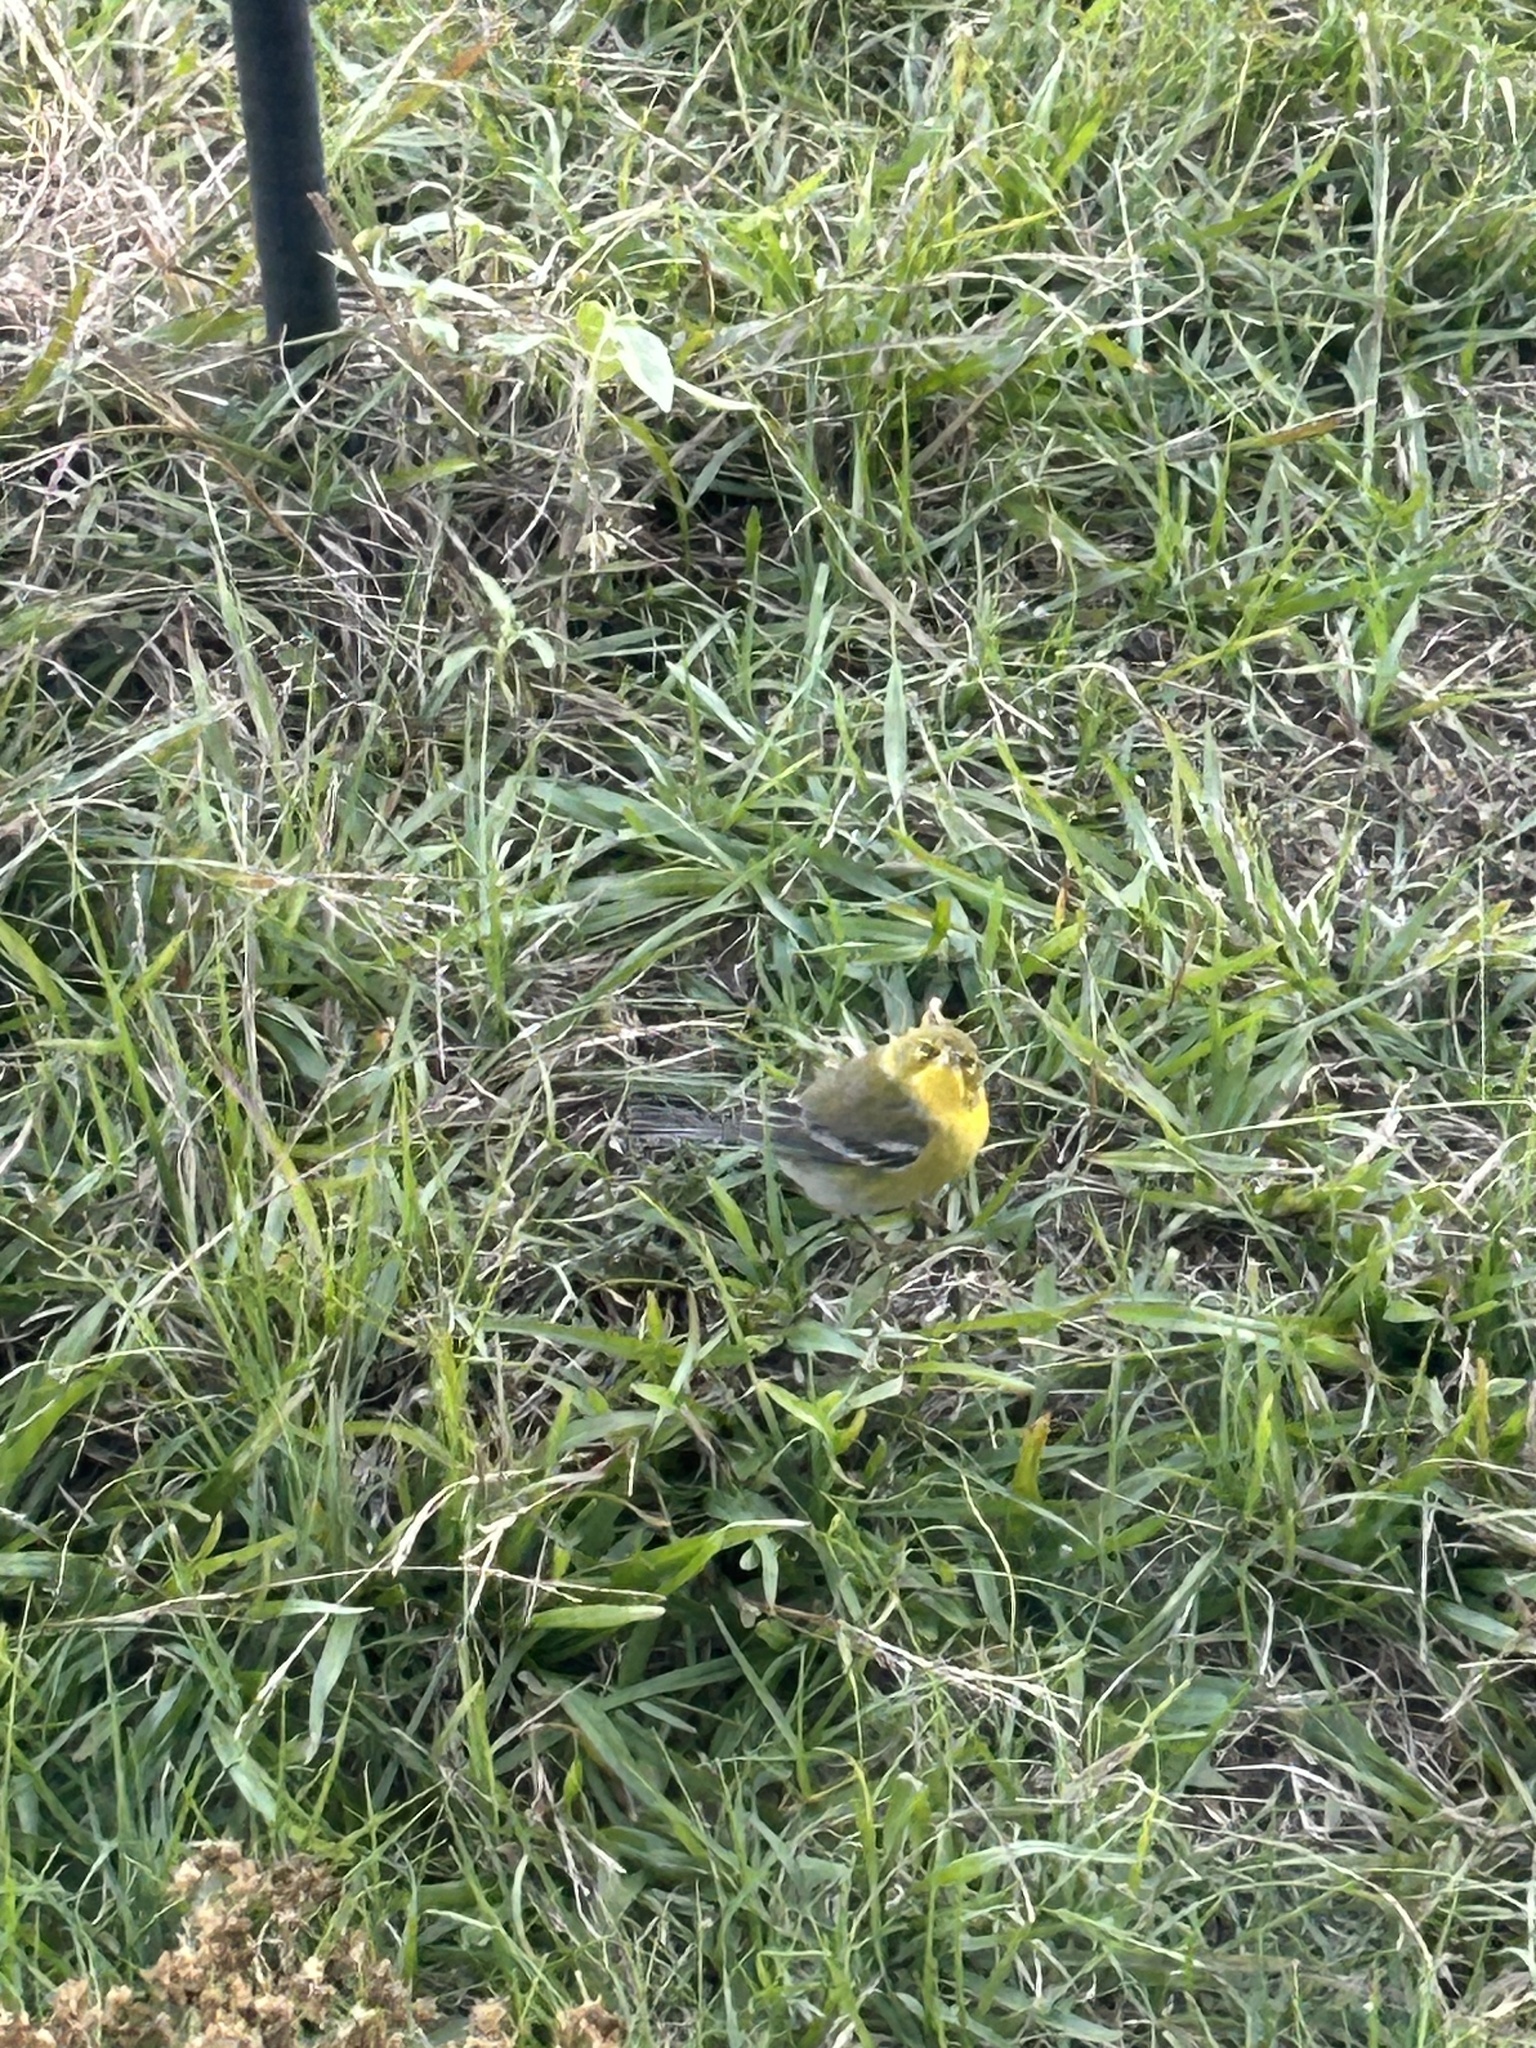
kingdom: Animalia
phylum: Chordata
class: Aves
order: Passeriformes
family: Parulidae
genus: Setophaga
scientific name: Setophaga pinus
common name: Pine warbler
